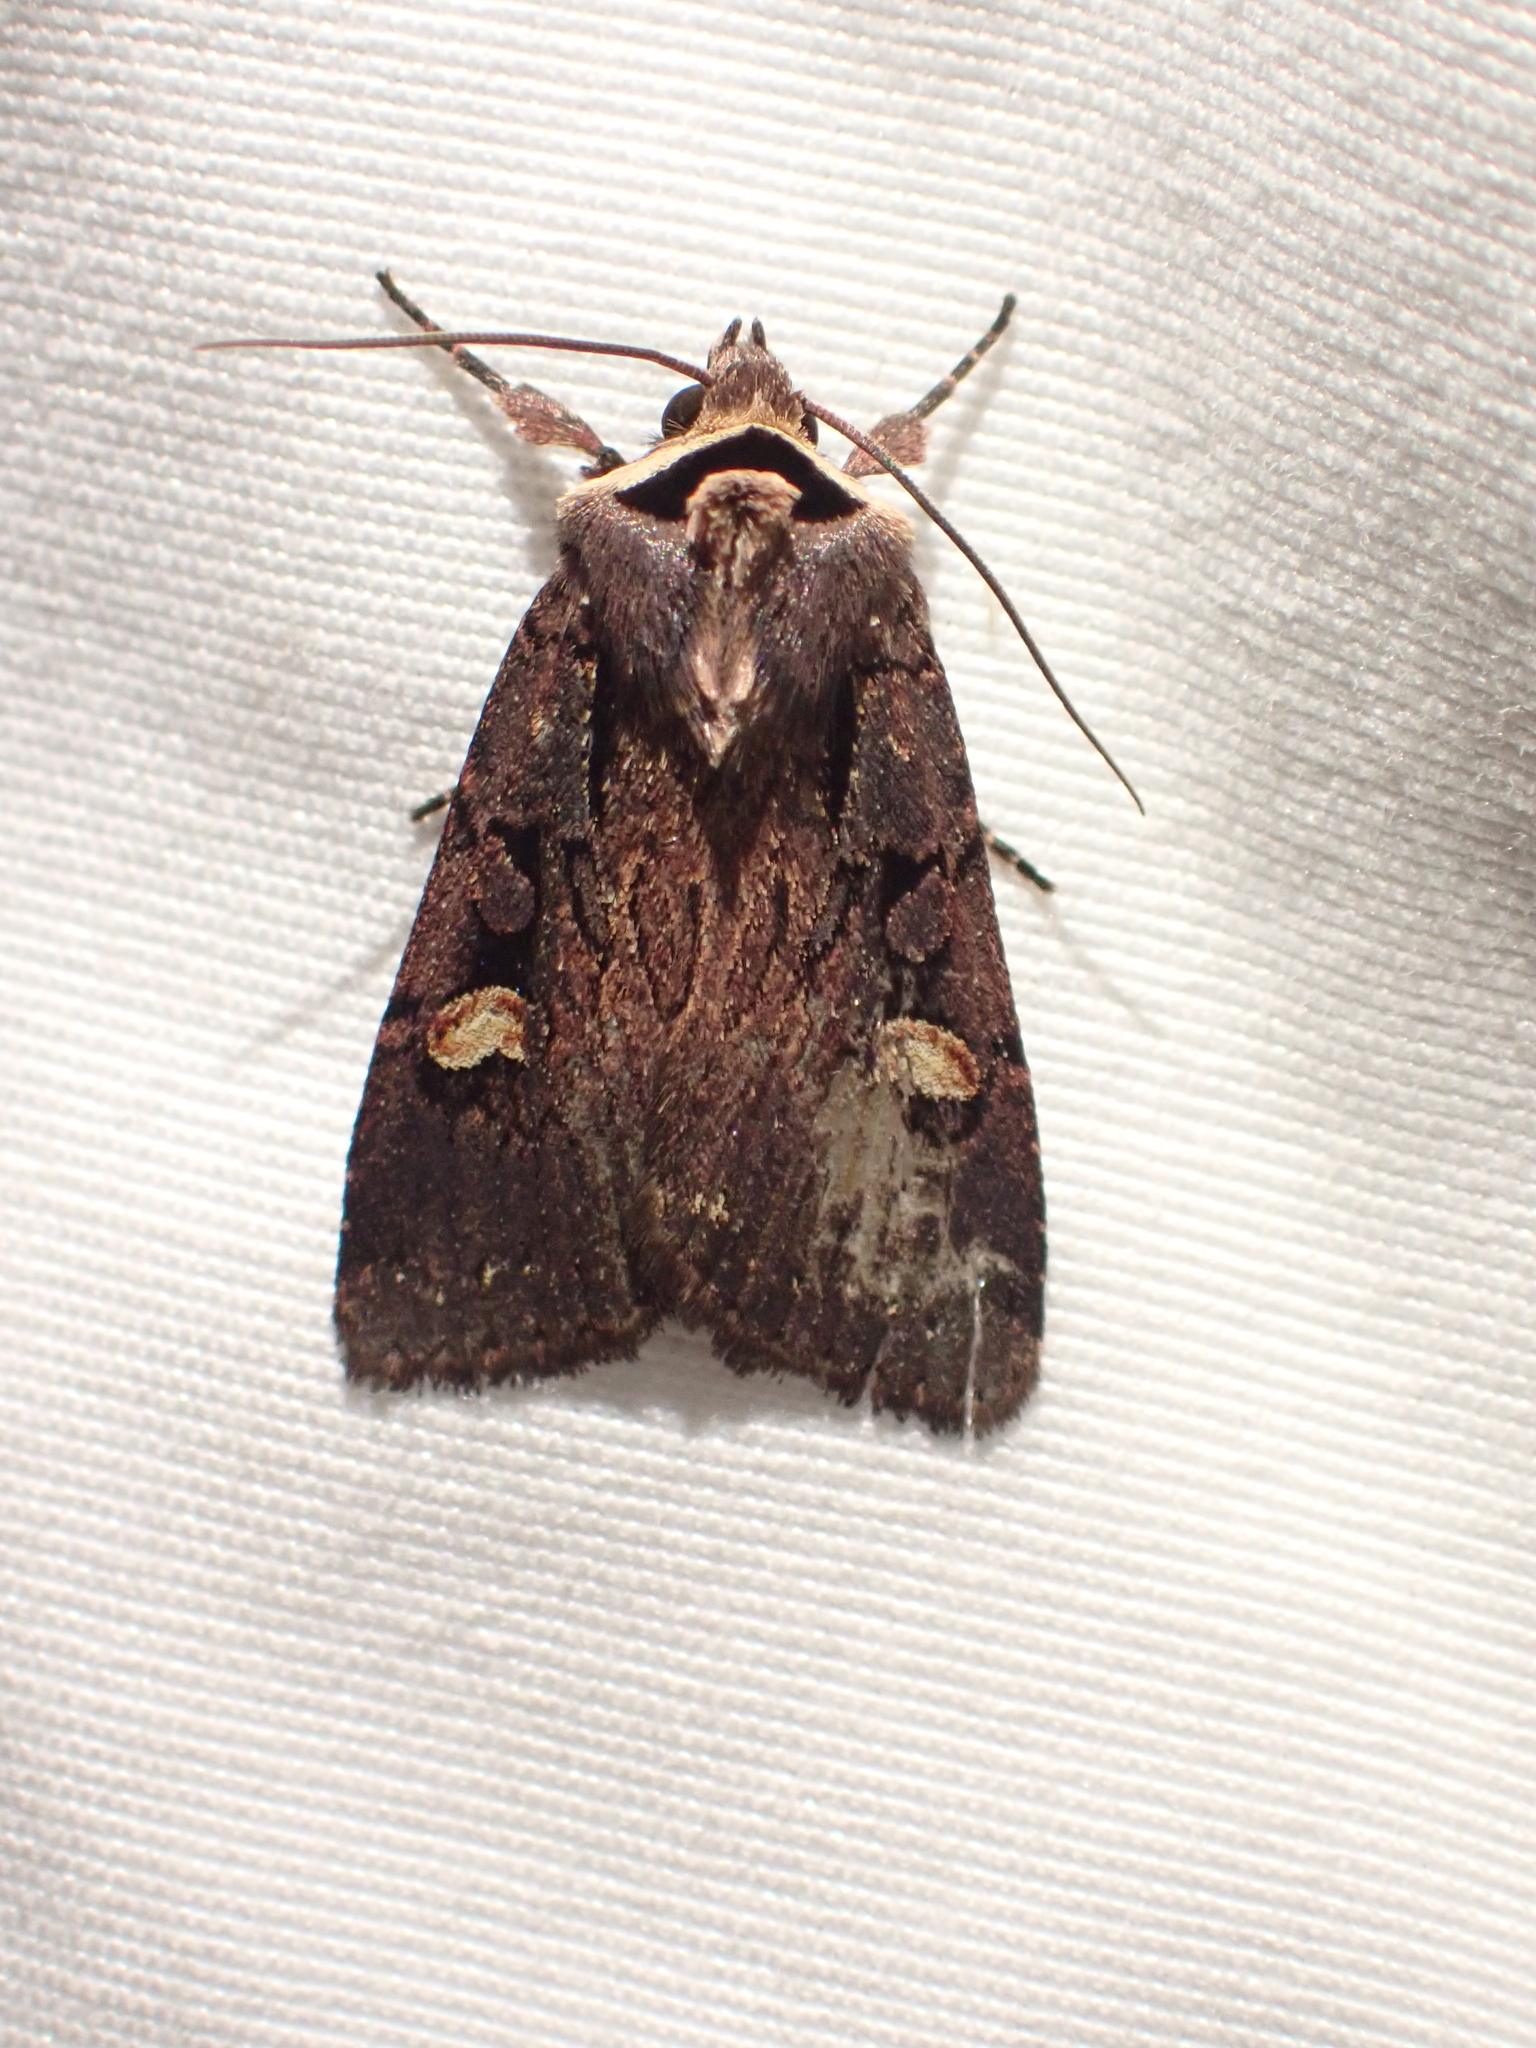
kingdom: Animalia
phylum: Arthropoda
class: Insecta
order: Lepidoptera
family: Noctuidae
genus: Adelphagrotis
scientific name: Adelphagrotis indeterminata
